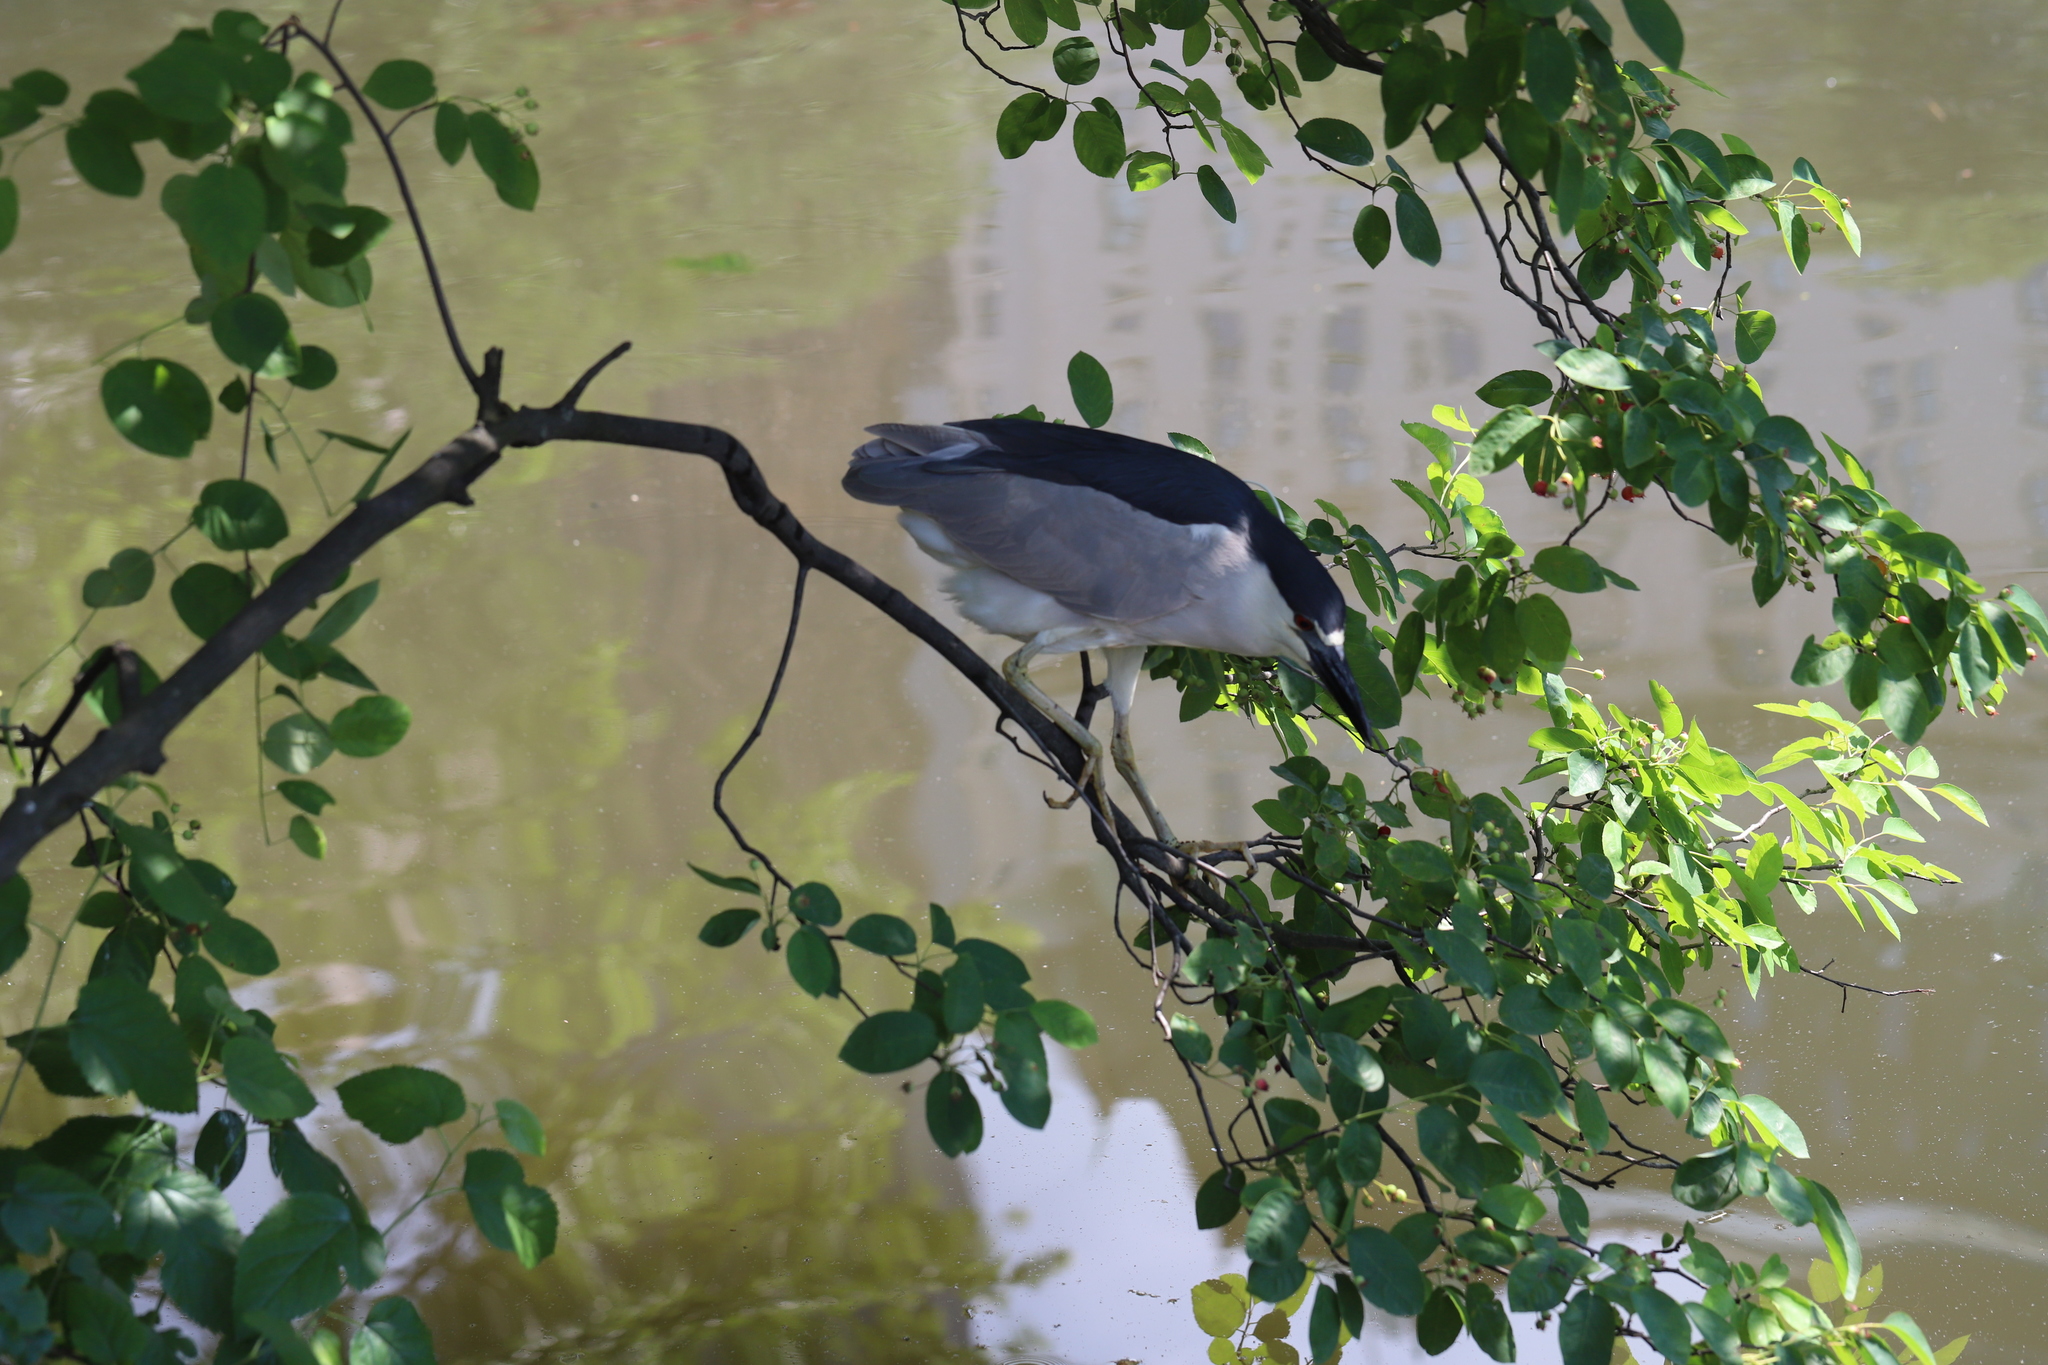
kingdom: Animalia
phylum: Chordata
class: Aves
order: Pelecaniformes
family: Ardeidae
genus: Nycticorax
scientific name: Nycticorax nycticorax
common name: Black-crowned night heron
